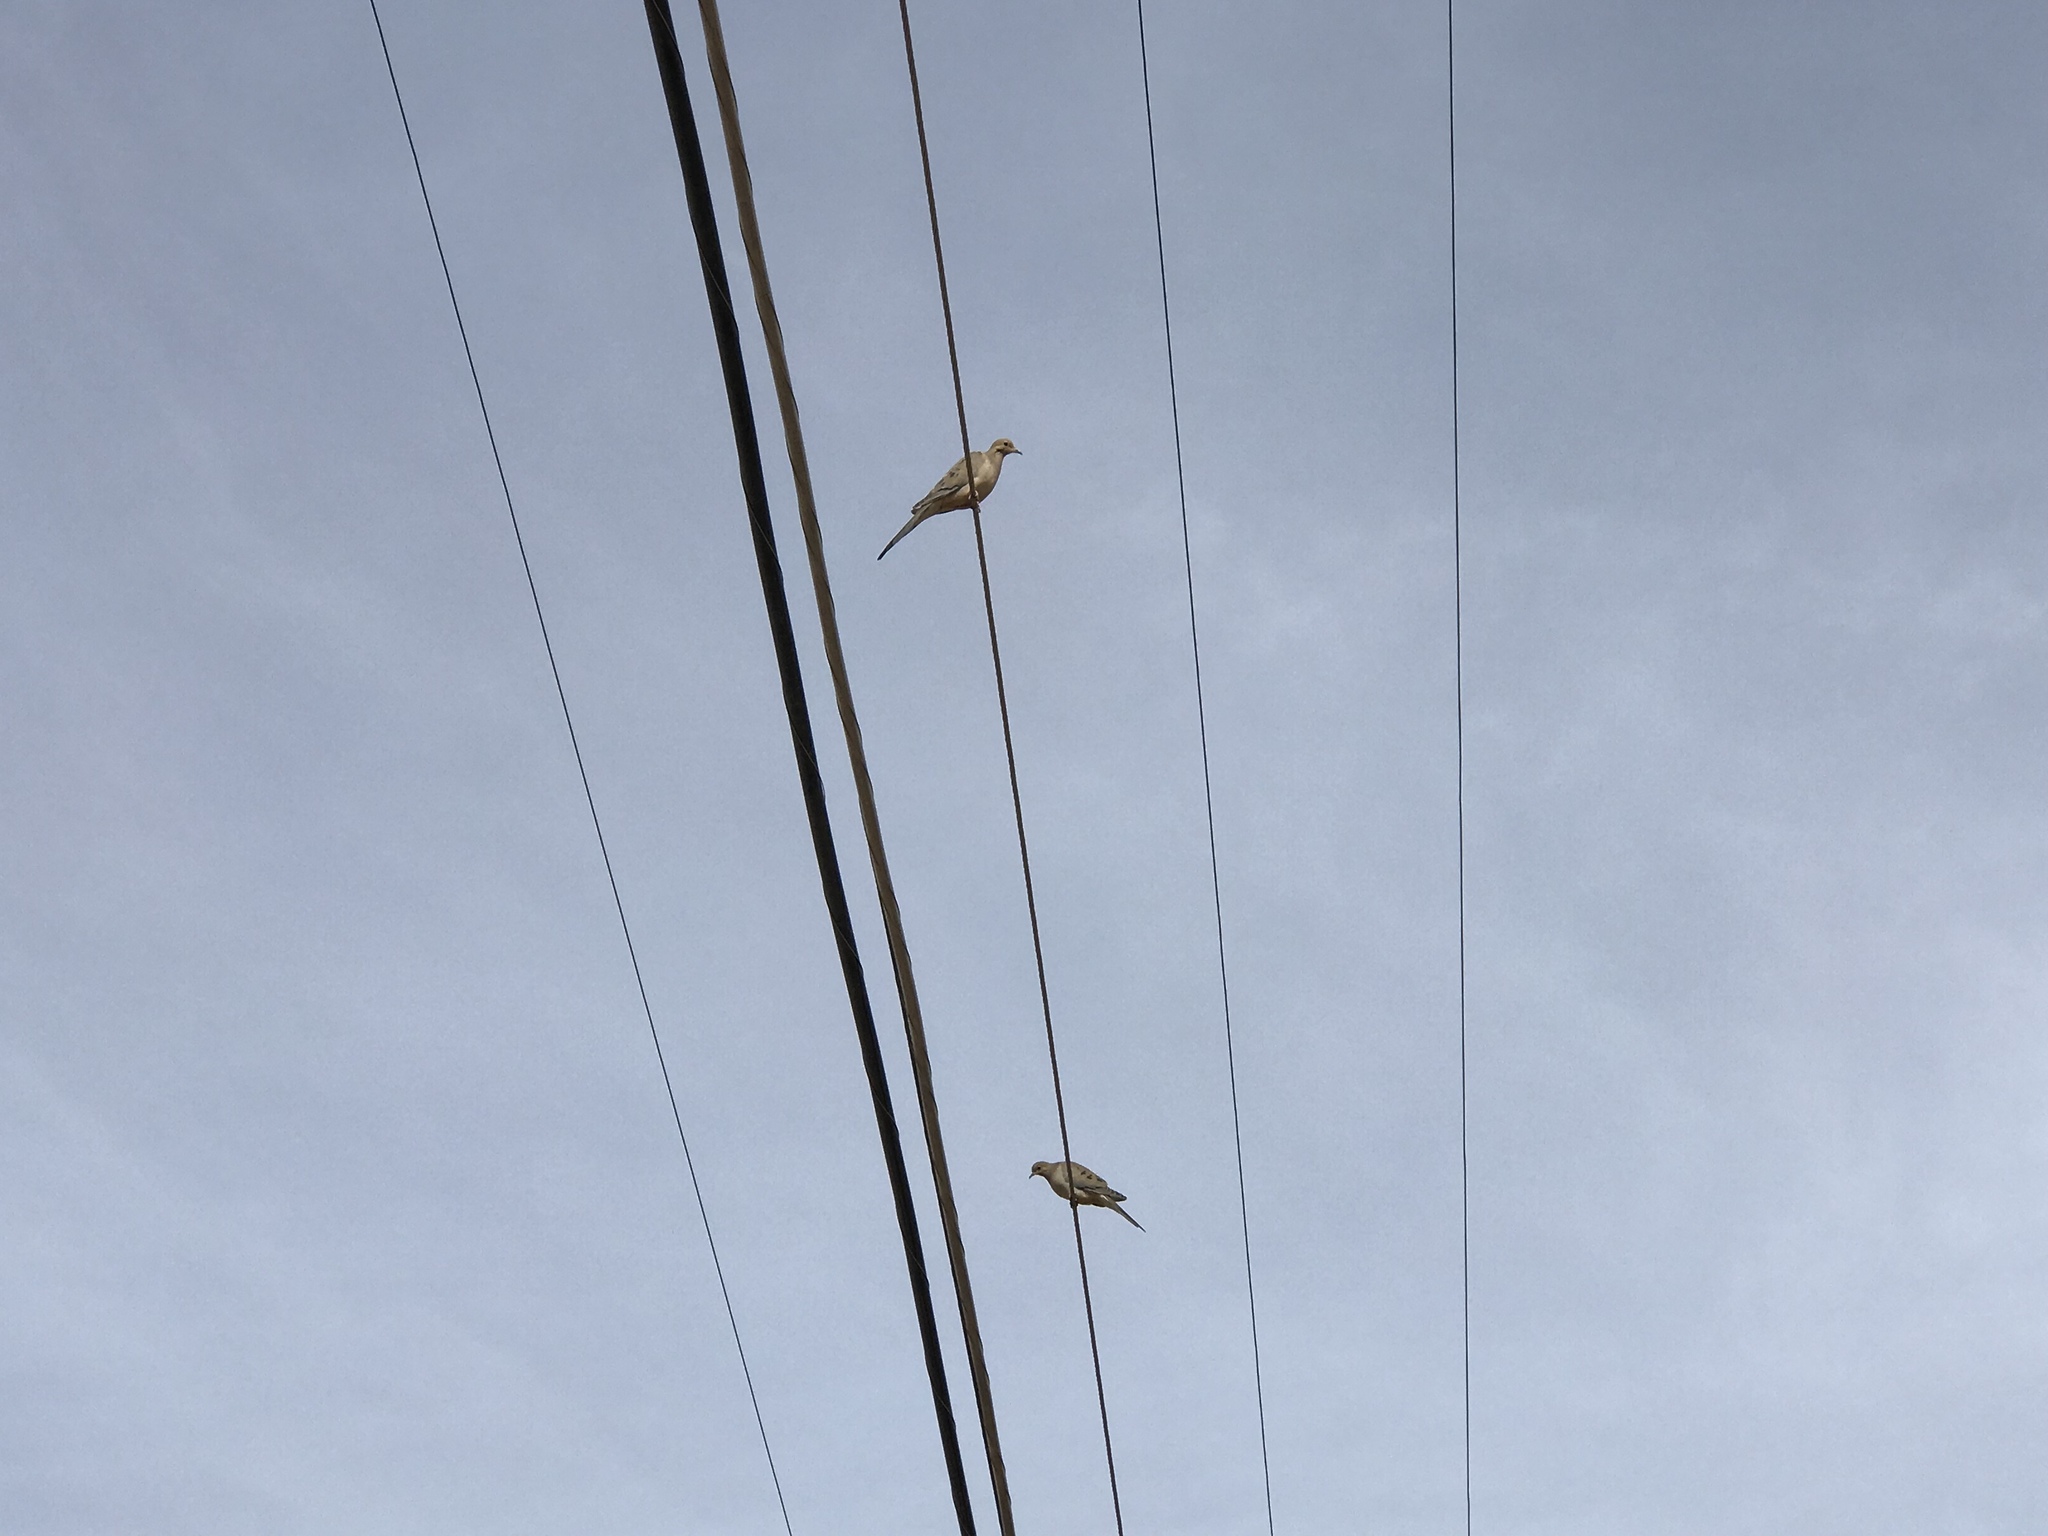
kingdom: Animalia
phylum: Chordata
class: Aves
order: Columbiformes
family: Columbidae
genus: Zenaida
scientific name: Zenaida macroura
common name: Mourning dove
